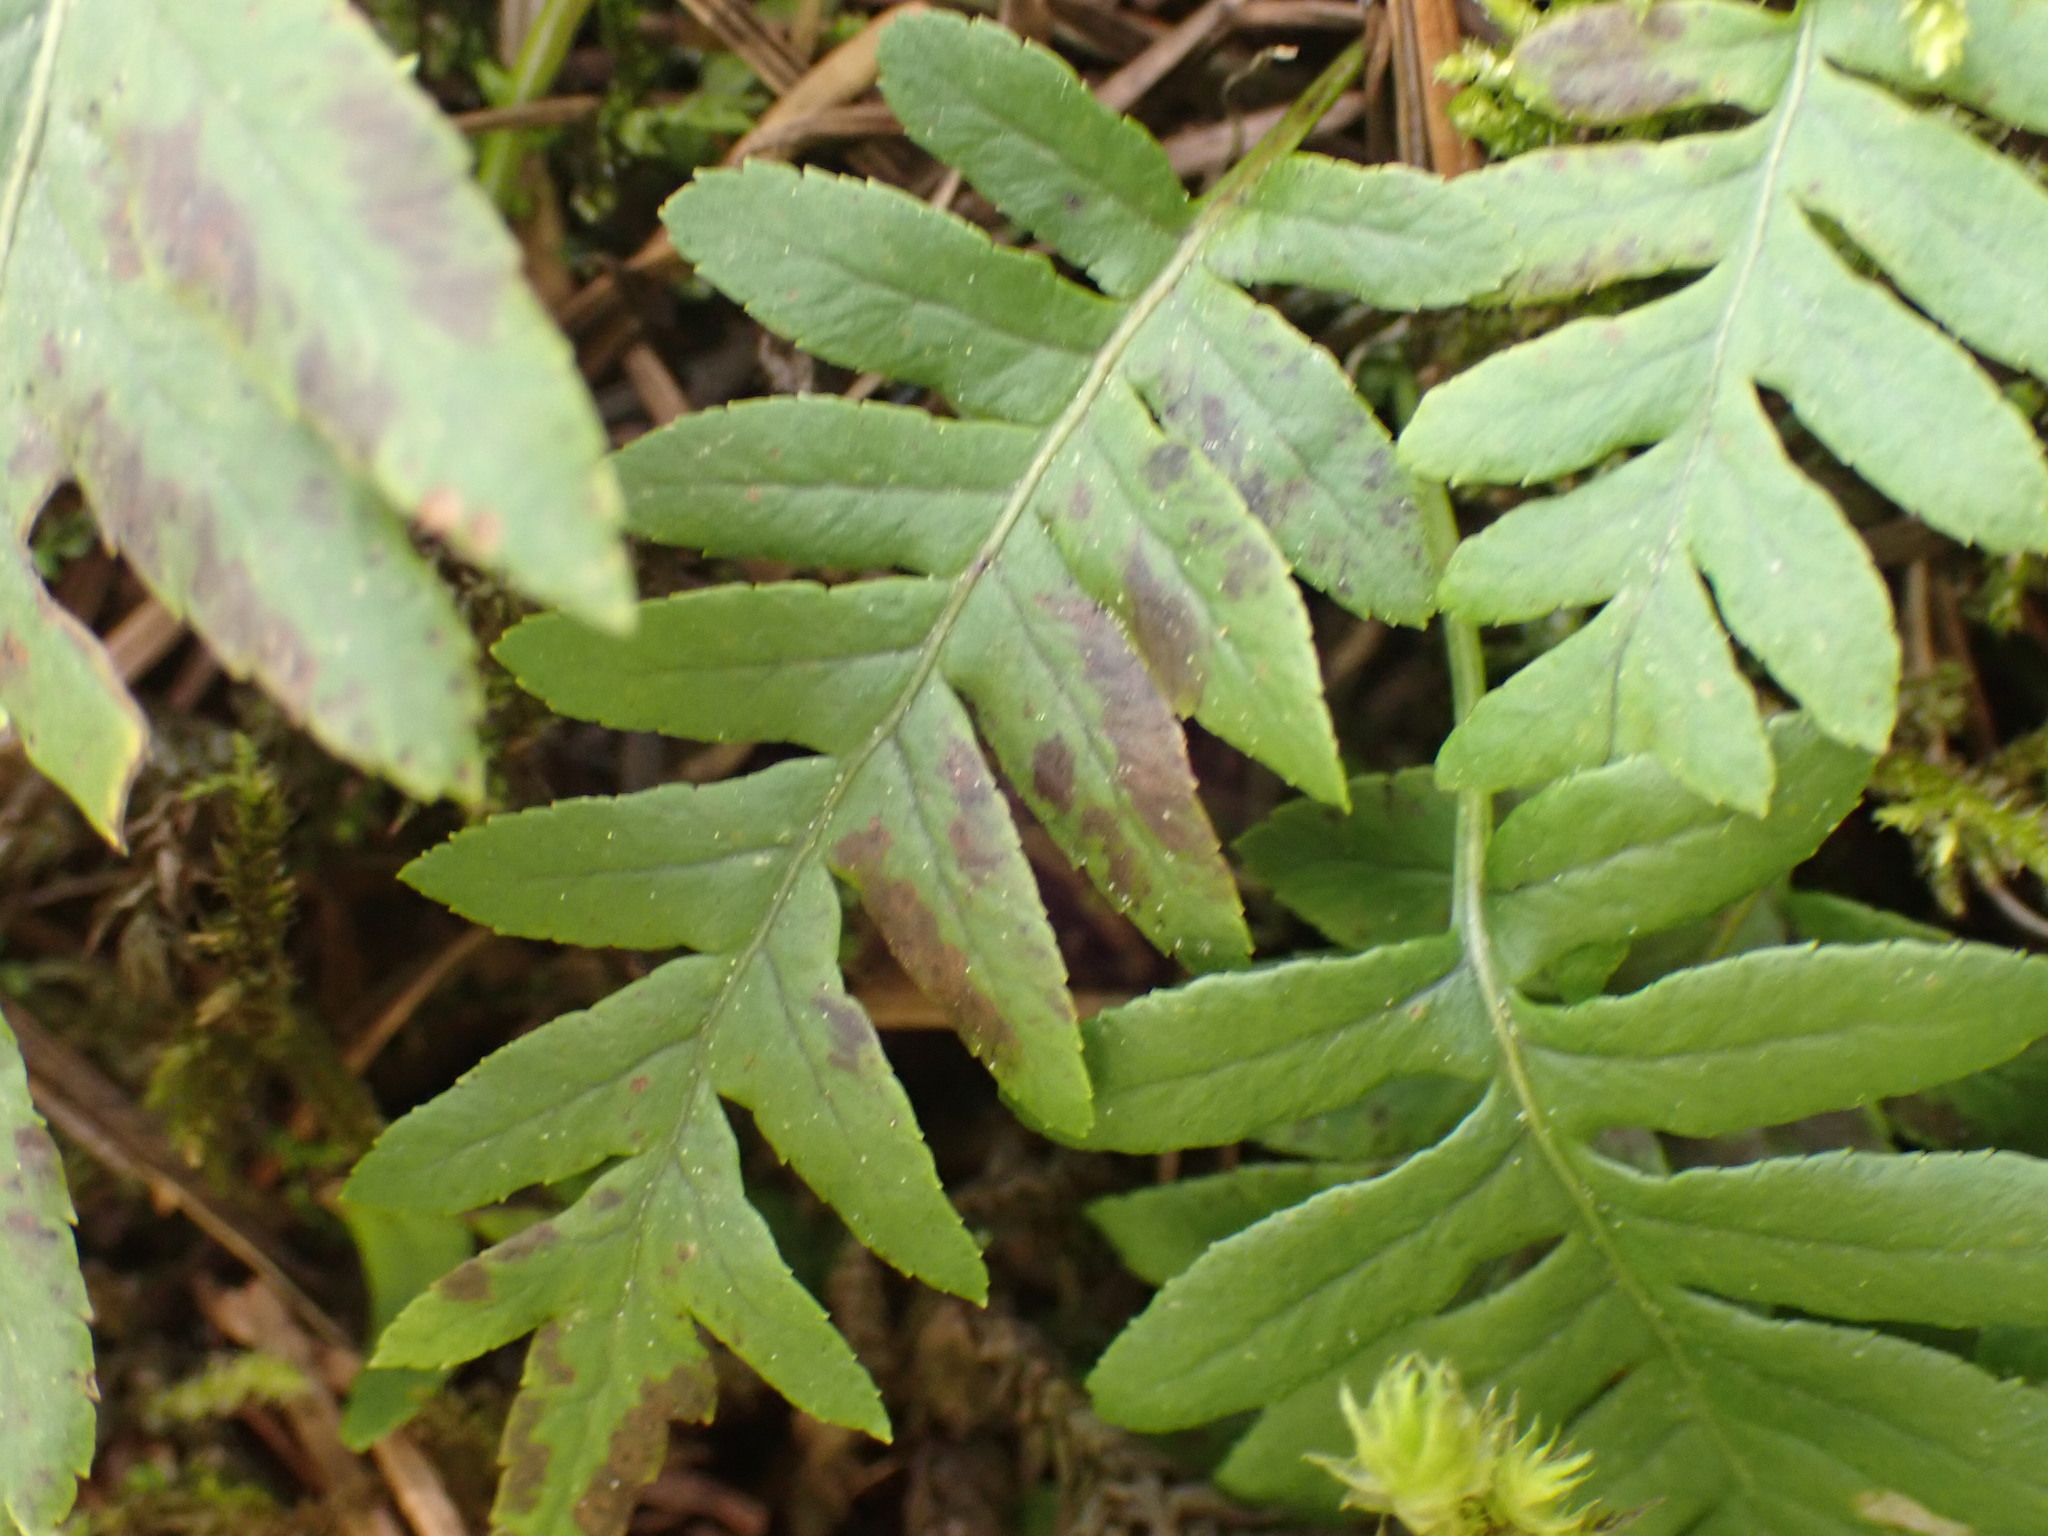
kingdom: Plantae
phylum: Tracheophyta
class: Polypodiopsida
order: Polypodiales
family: Polypodiaceae
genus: Polypodium
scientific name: Polypodium glycyrrhiza
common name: Licorice fern
